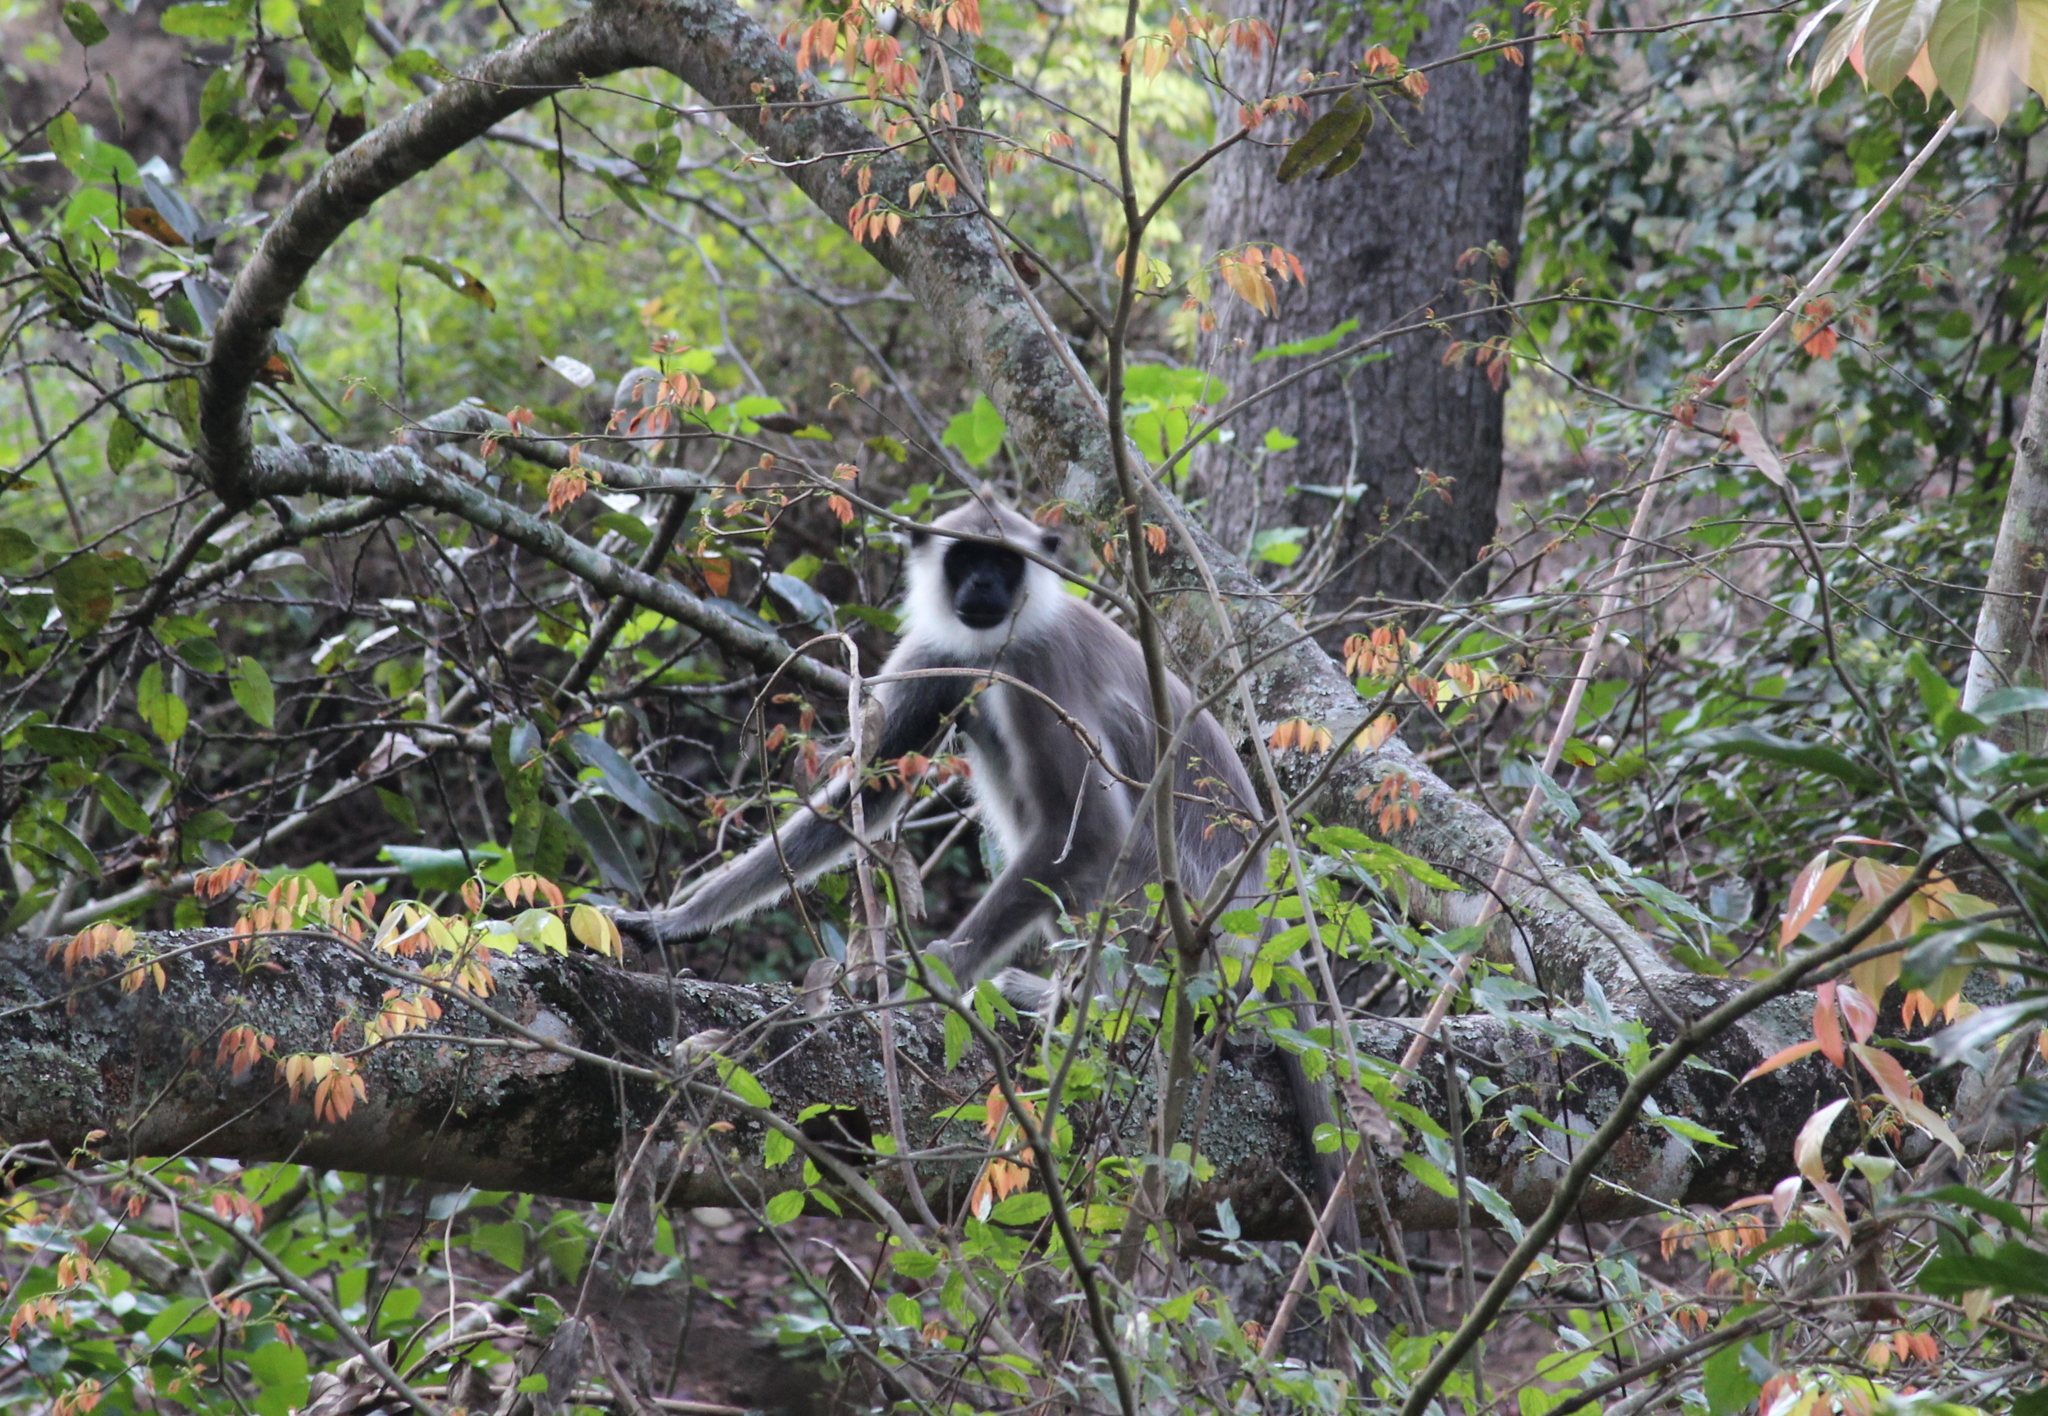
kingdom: Animalia
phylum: Chordata
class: Mammalia
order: Primates
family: Cercopithecidae
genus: Semnopithecus
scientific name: Semnopithecus priam
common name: Tufted gray langur
